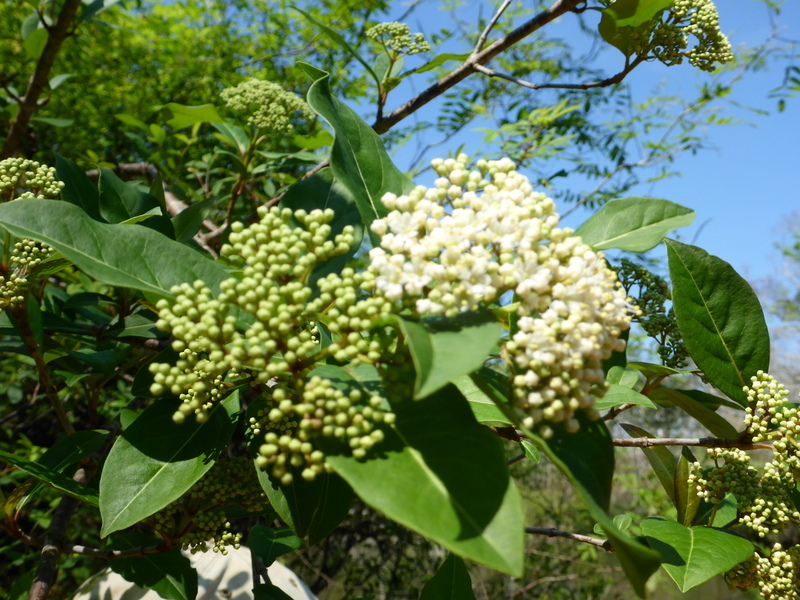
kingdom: Plantae
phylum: Tracheophyta
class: Magnoliopsida
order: Dipsacales
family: Viburnaceae
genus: Viburnum
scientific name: Viburnum nudum
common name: Possum haw
